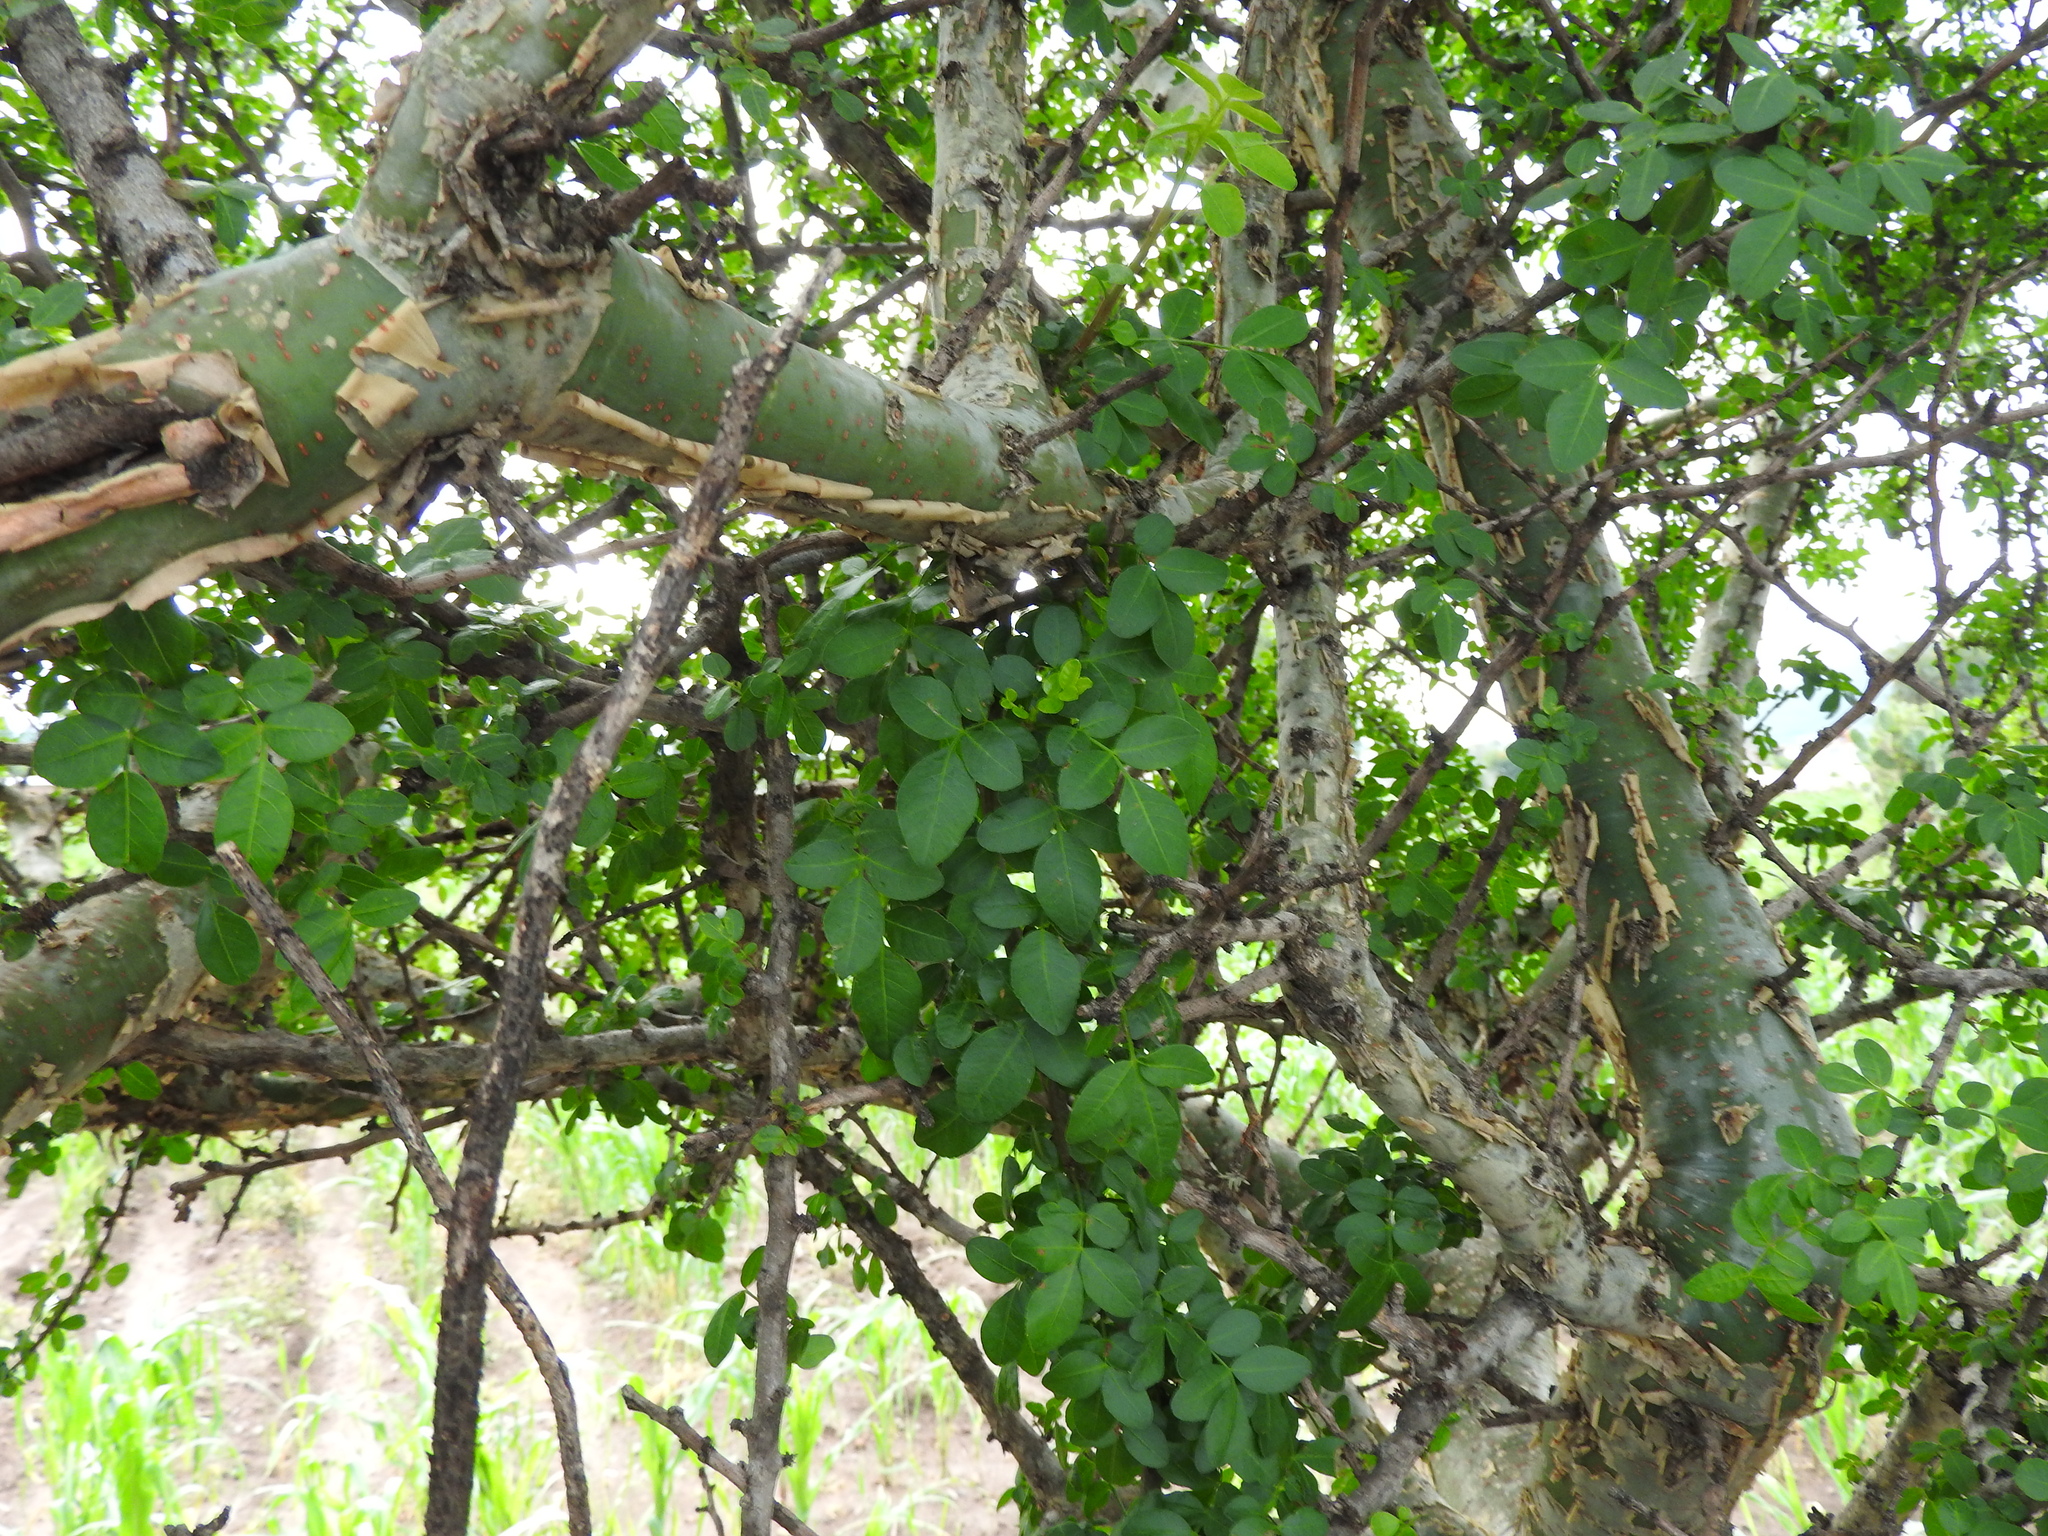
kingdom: Plantae
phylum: Tracheophyta
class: Magnoliopsida
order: Sapindales
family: Burseraceae
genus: Bursera
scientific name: Bursera fagaroides
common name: Elephant tree
